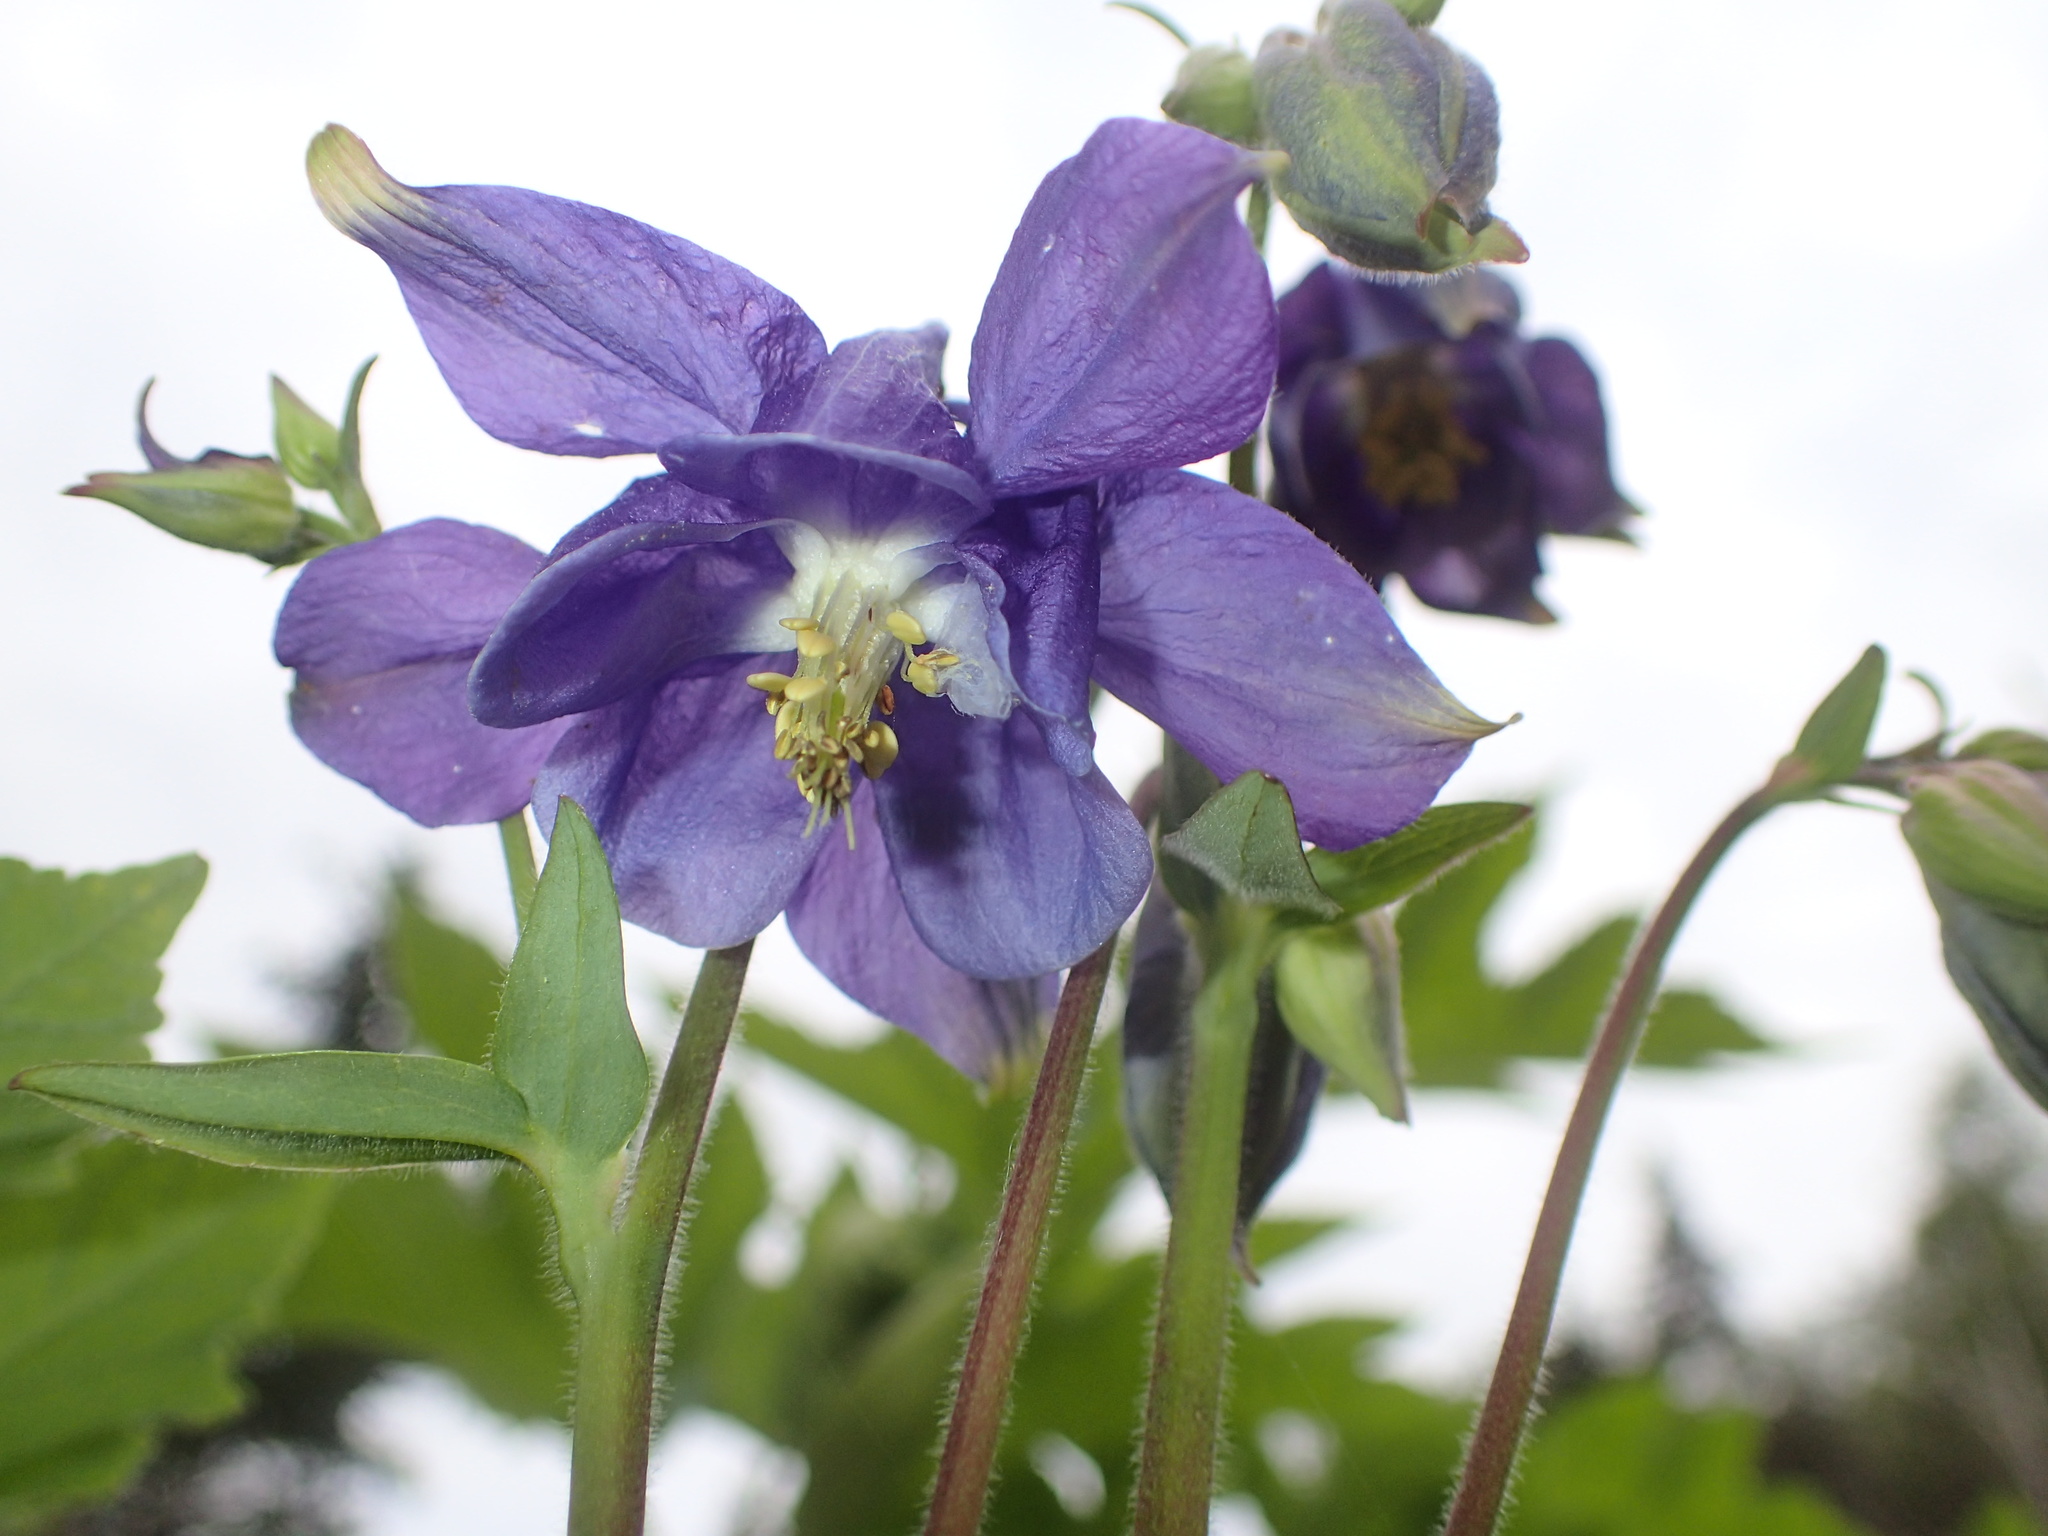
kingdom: Plantae
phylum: Tracheophyta
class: Magnoliopsida
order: Ranunculales
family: Ranunculaceae
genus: Aquilegia
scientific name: Aquilegia vulgaris
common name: Columbine
